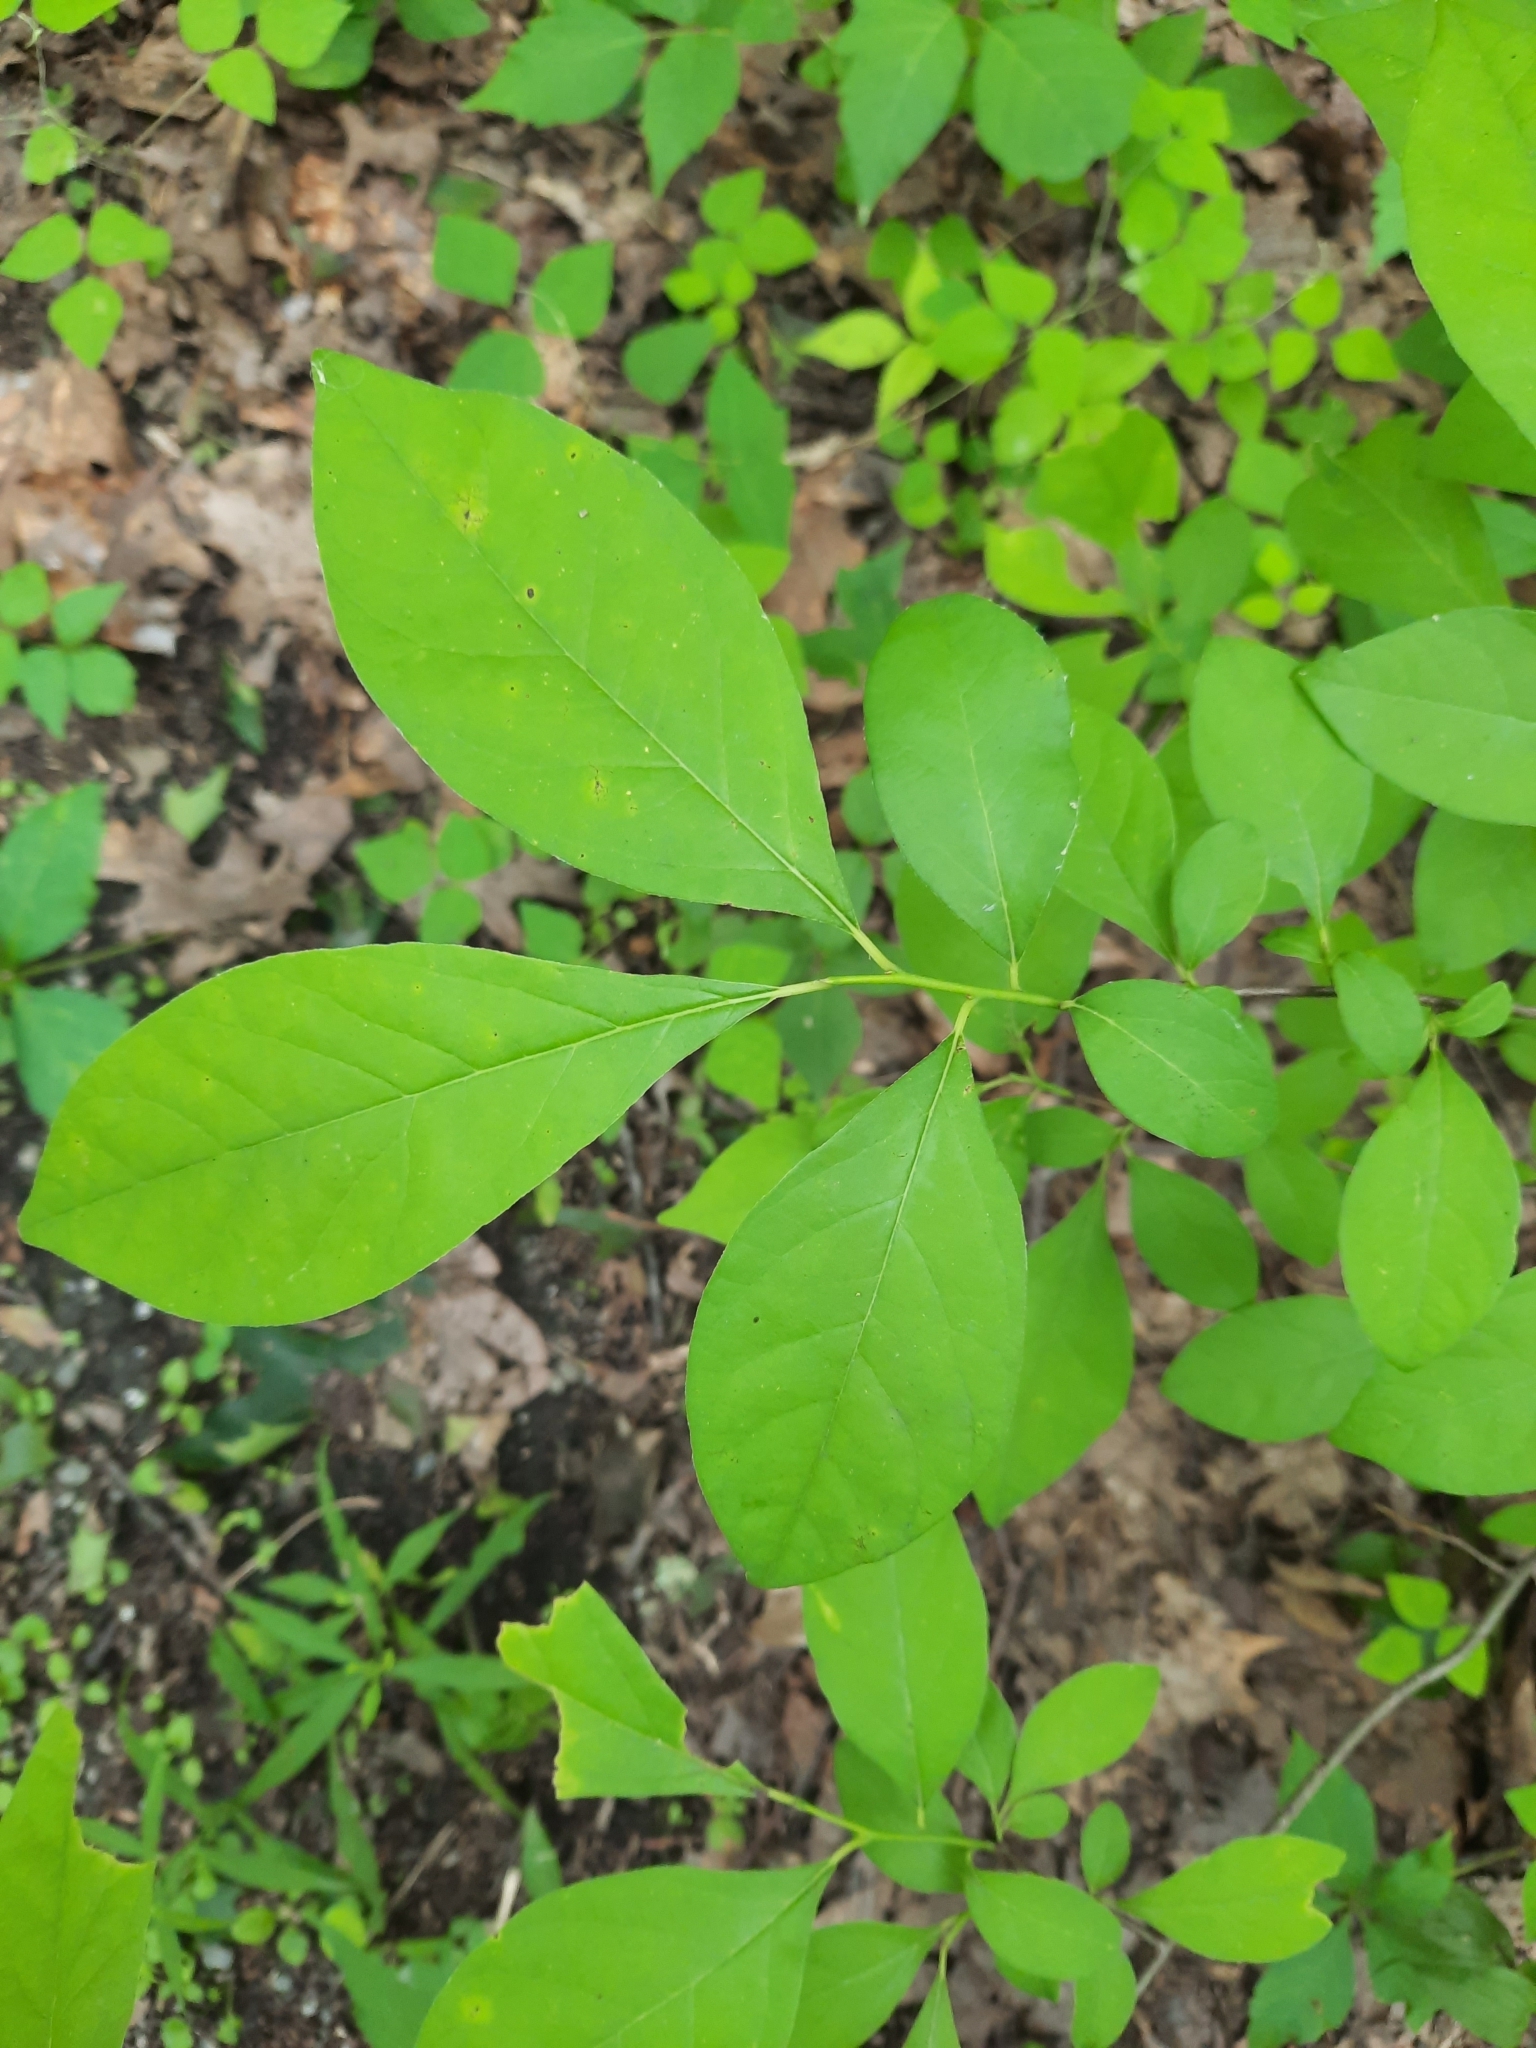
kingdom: Plantae
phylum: Tracheophyta
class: Magnoliopsida
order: Laurales
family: Lauraceae
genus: Lindera
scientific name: Lindera benzoin
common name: Spicebush
